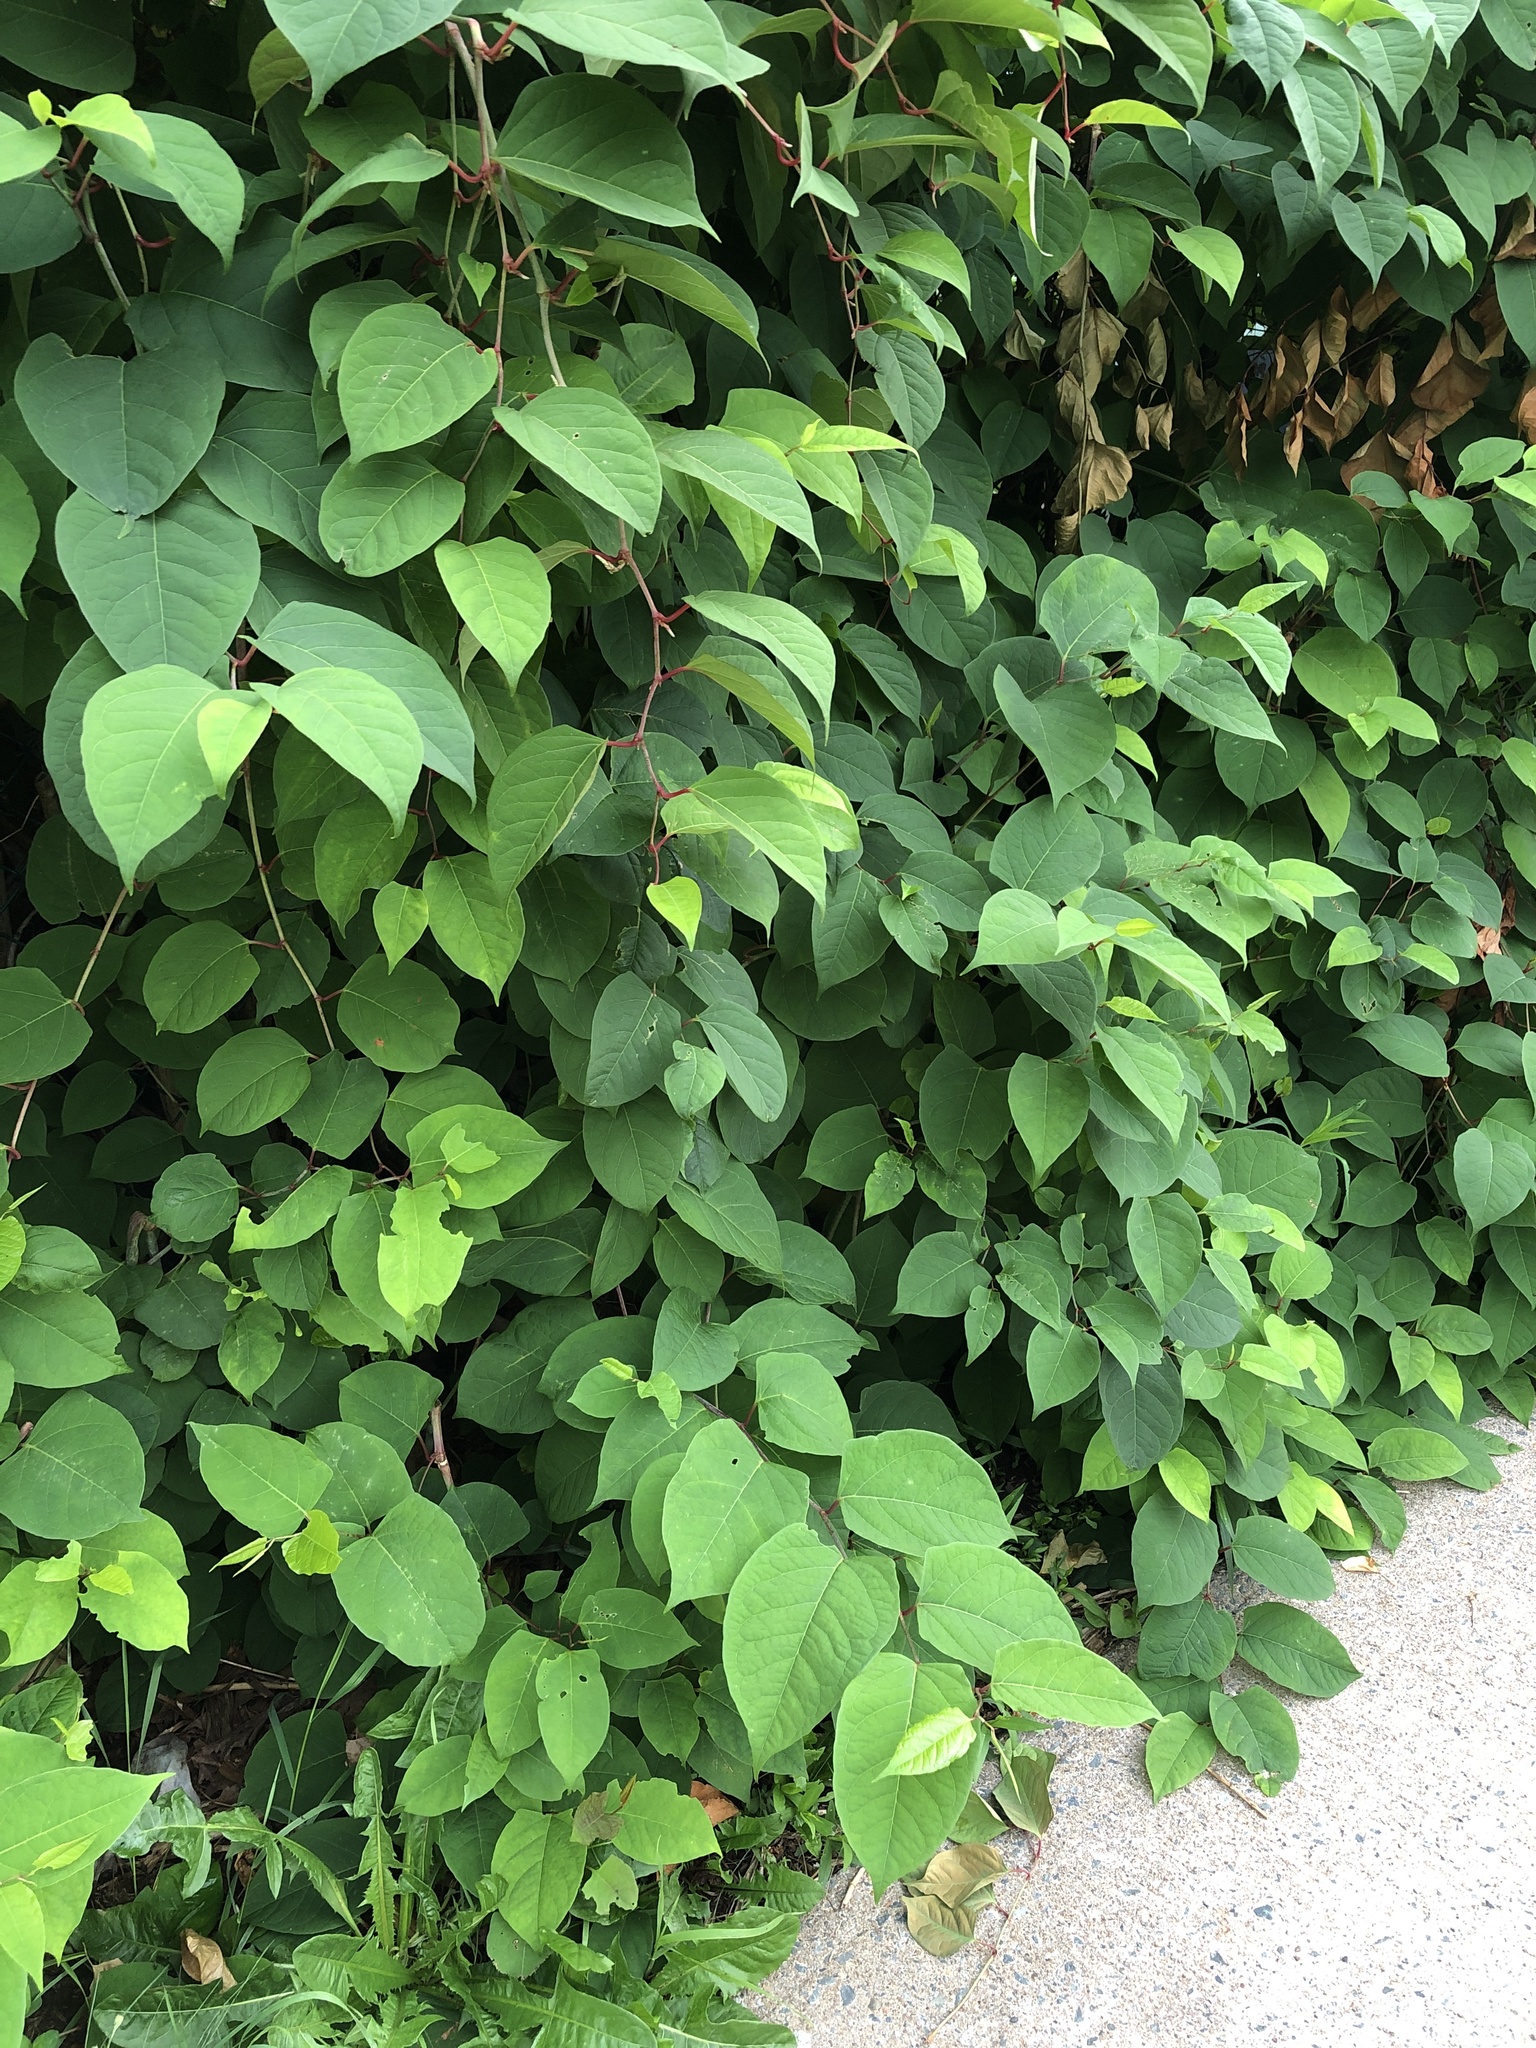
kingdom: Plantae
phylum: Tracheophyta
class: Magnoliopsida
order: Caryophyllales
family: Polygonaceae
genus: Reynoutria
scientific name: Reynoutria japonica
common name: Japanese knotweed
